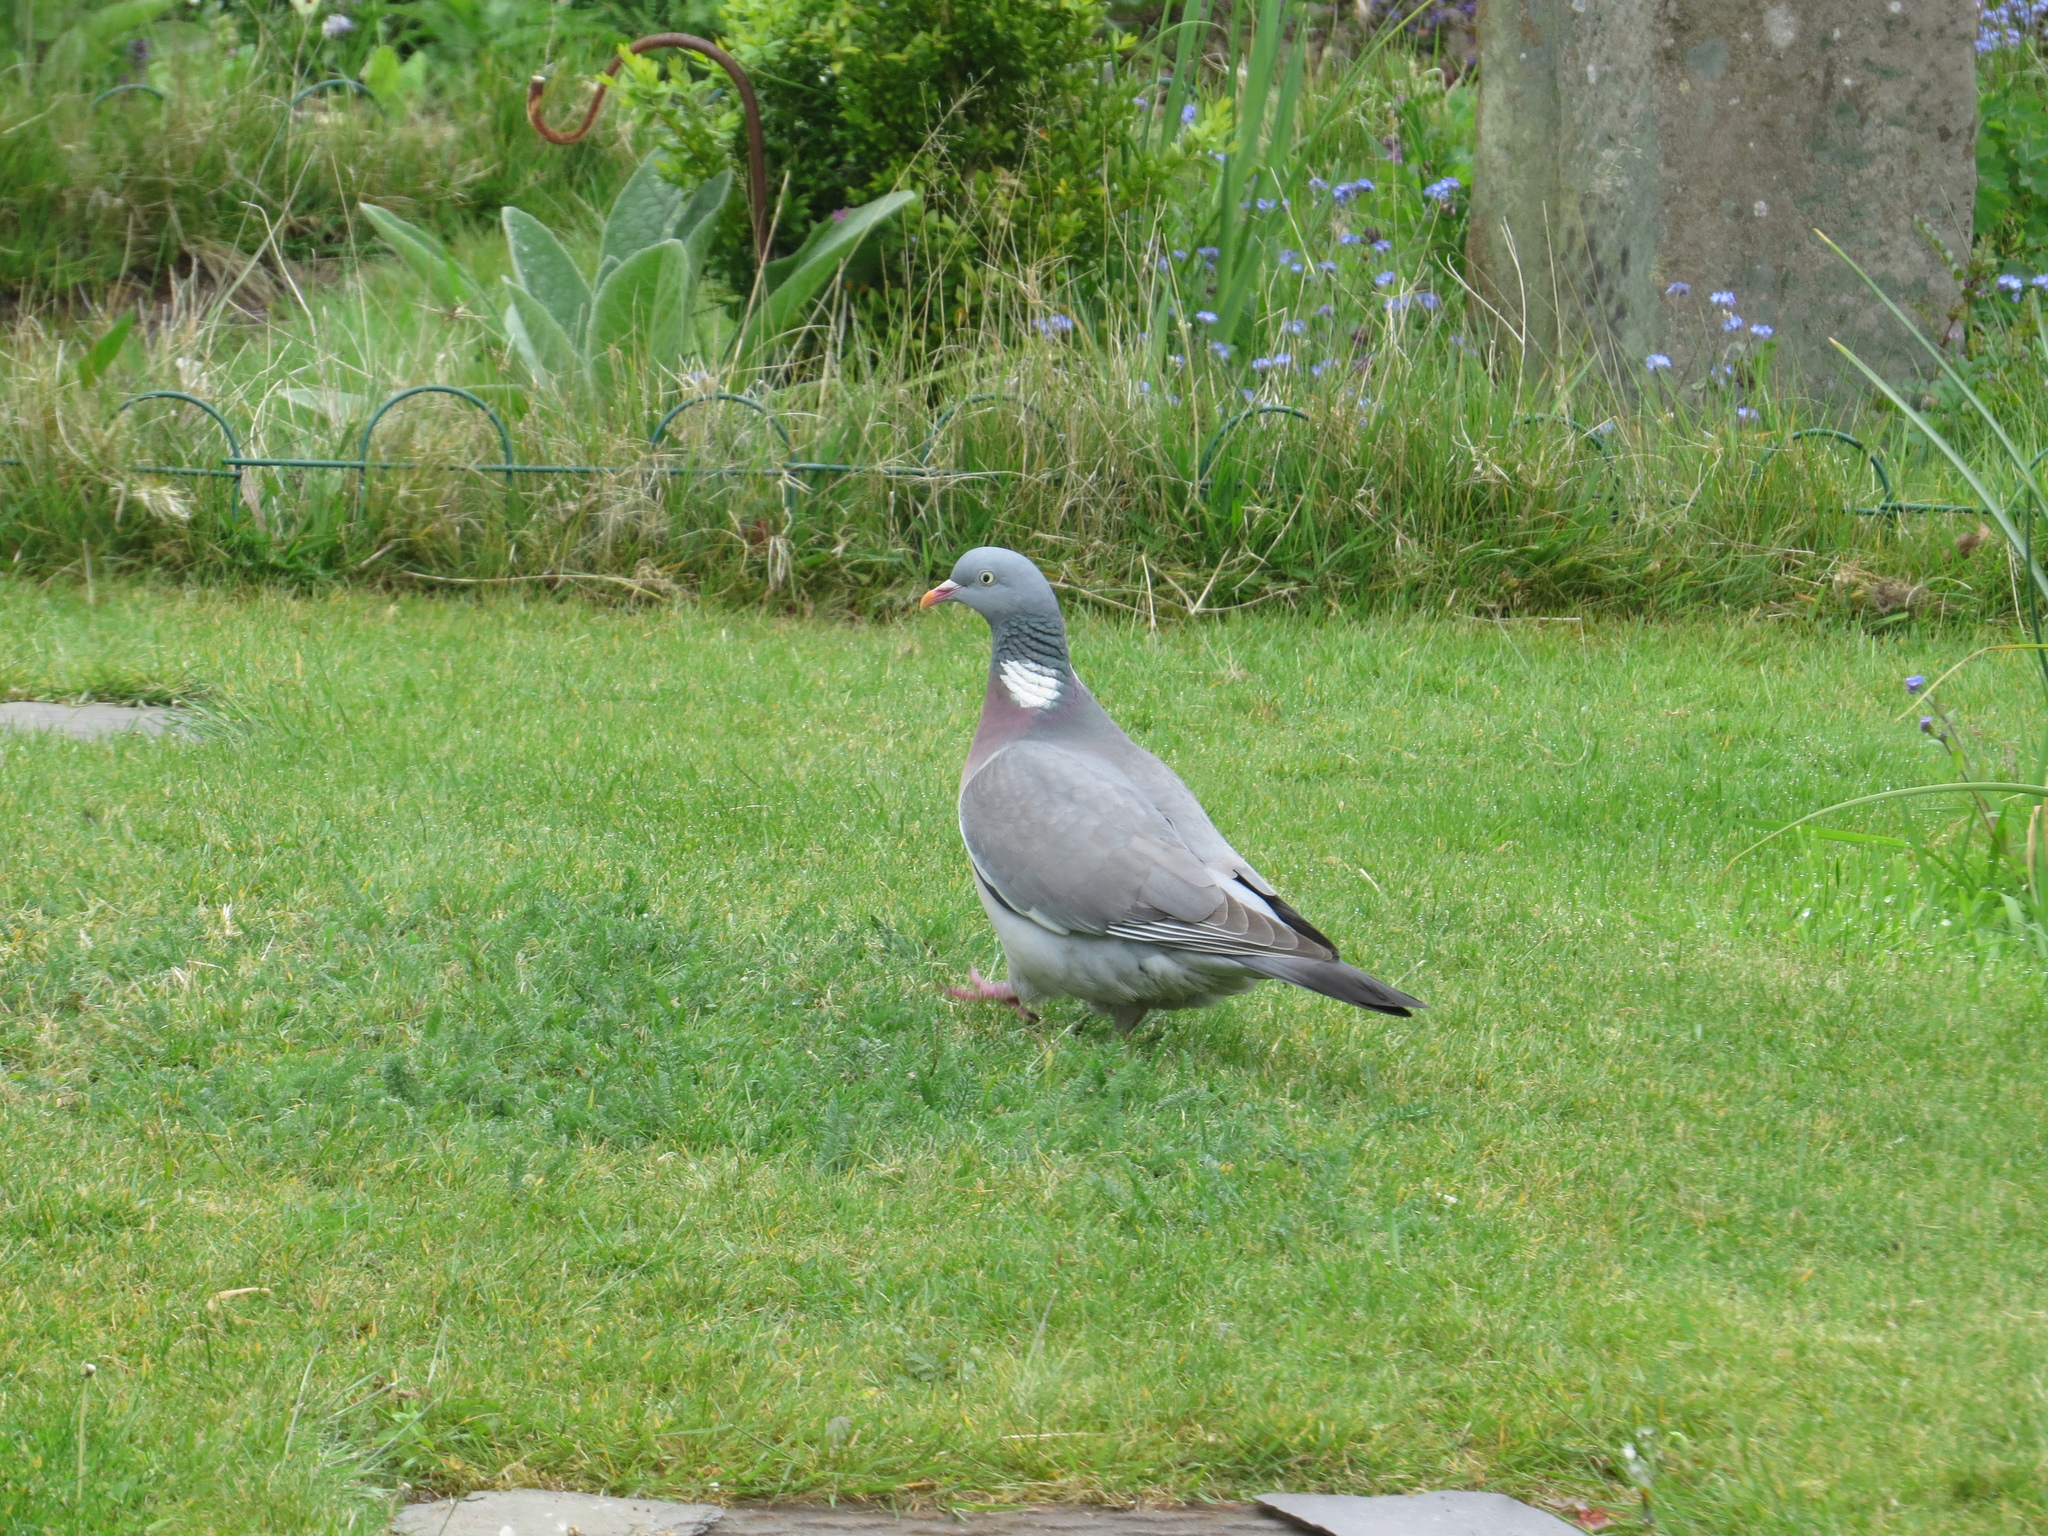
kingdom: Animalia
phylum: Chordata
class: Aves
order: Columbiformes
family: Columbidae
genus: Columba
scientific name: Columba palumbus
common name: Common wood pigeon
